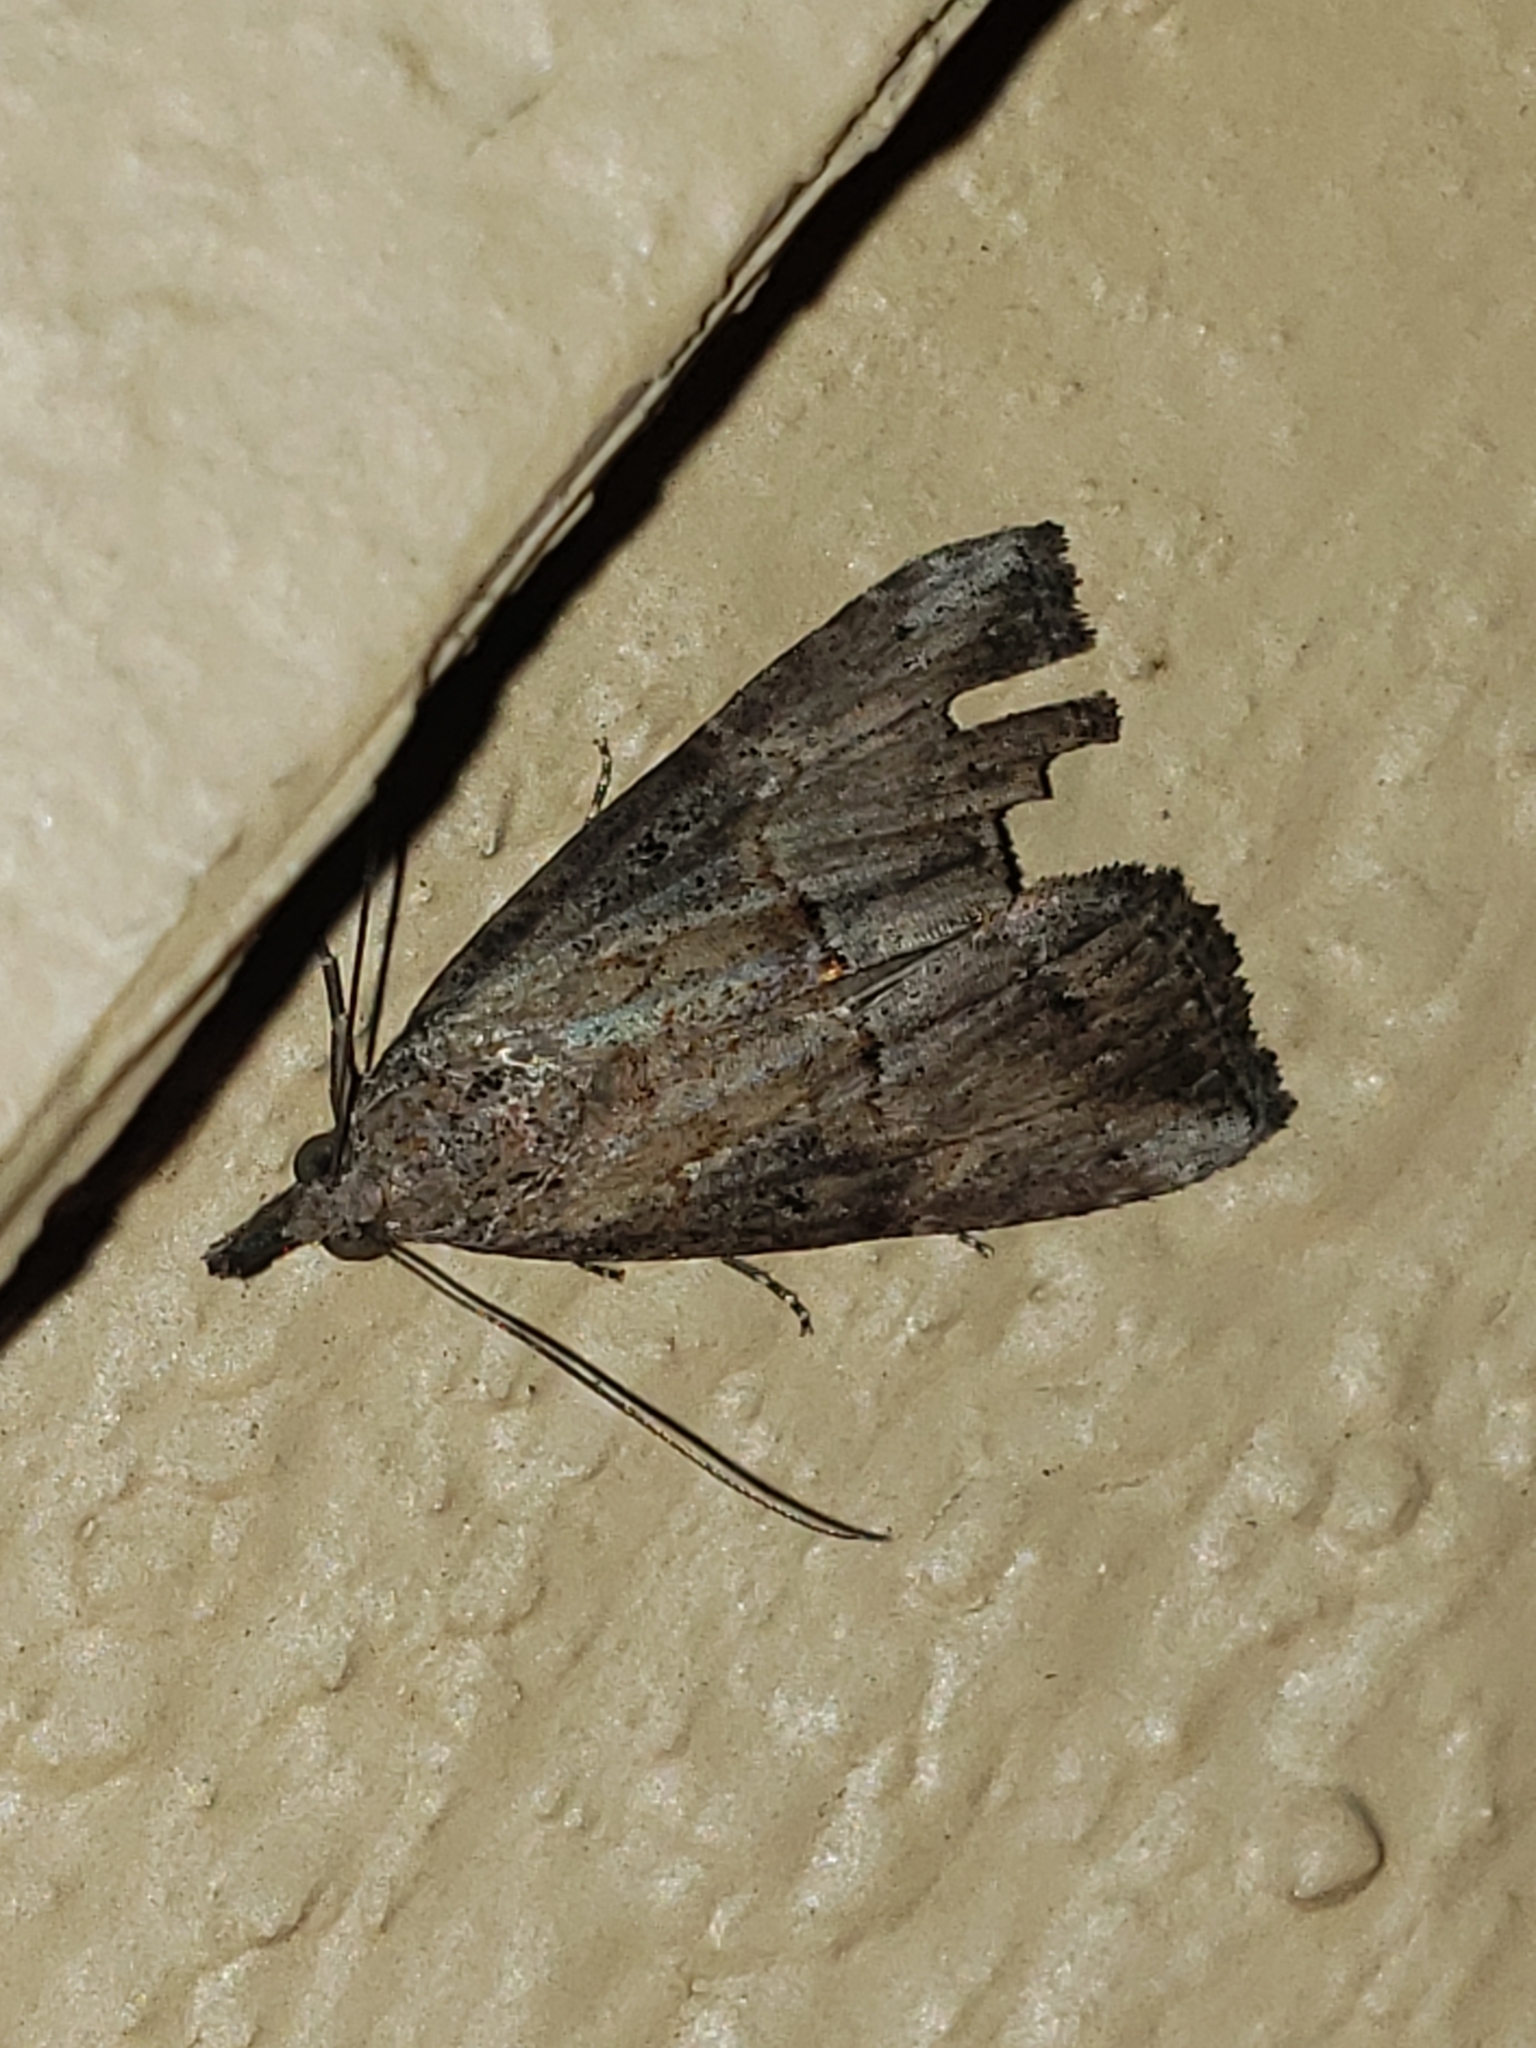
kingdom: Animalia
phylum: Arthropoda
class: Insecta
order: Lepidoptera
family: Erebidae
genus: Hypena
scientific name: Hypena scabra
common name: Green cloverworm
